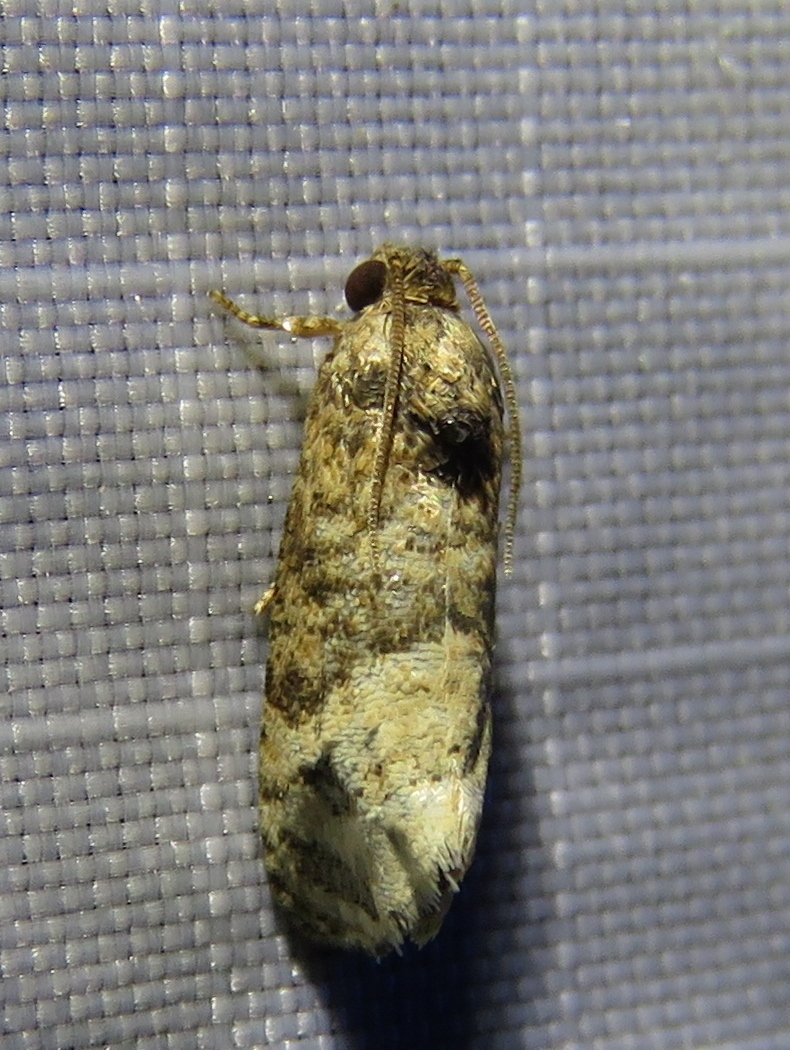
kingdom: Animalia
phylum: Arthropoda
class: Insecta
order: Lepidoptera
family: Tortricidae
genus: Ecdytolopha
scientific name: Ecdytolopha mana
